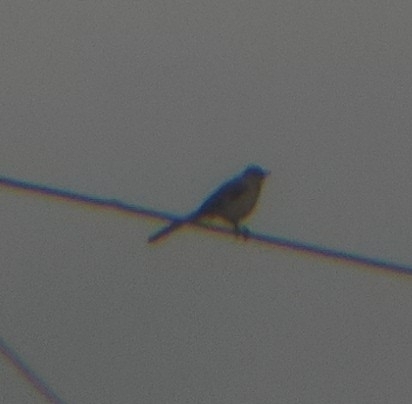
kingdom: Animalia
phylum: Chordata
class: Aves
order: Passeriformes
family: Mimidae
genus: Mimus
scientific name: Mimus polyglottos
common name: Northern mockingbird
